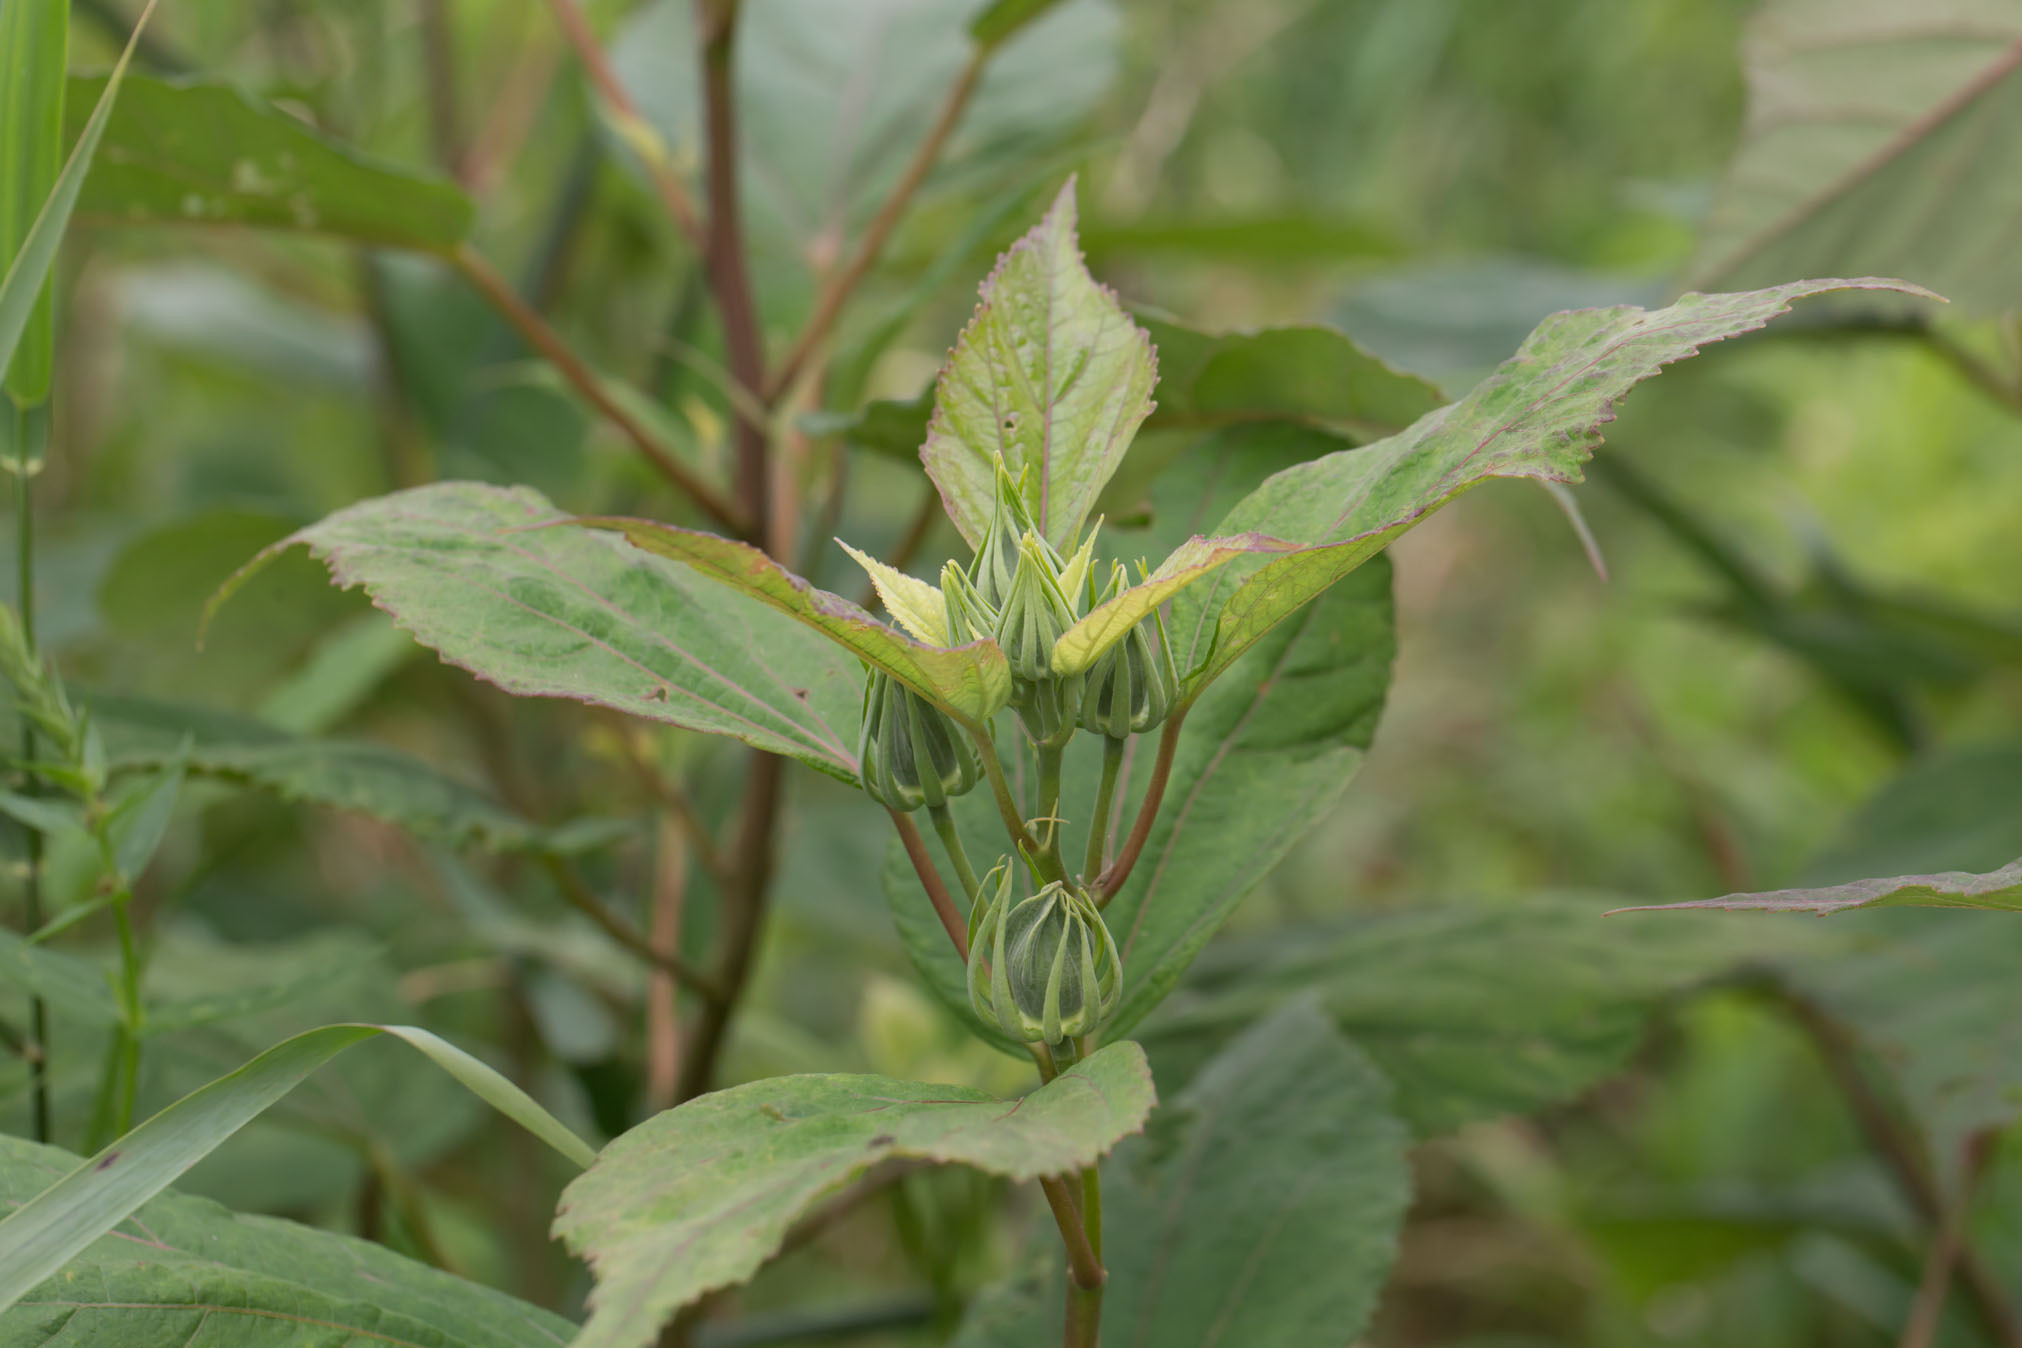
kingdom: Plantae
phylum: Tracheophyta
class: Magnoliopsida
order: Malvales
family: Malvaceae
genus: Hibiscus
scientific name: Hibiscus moscheutos
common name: Common rose-mallow
